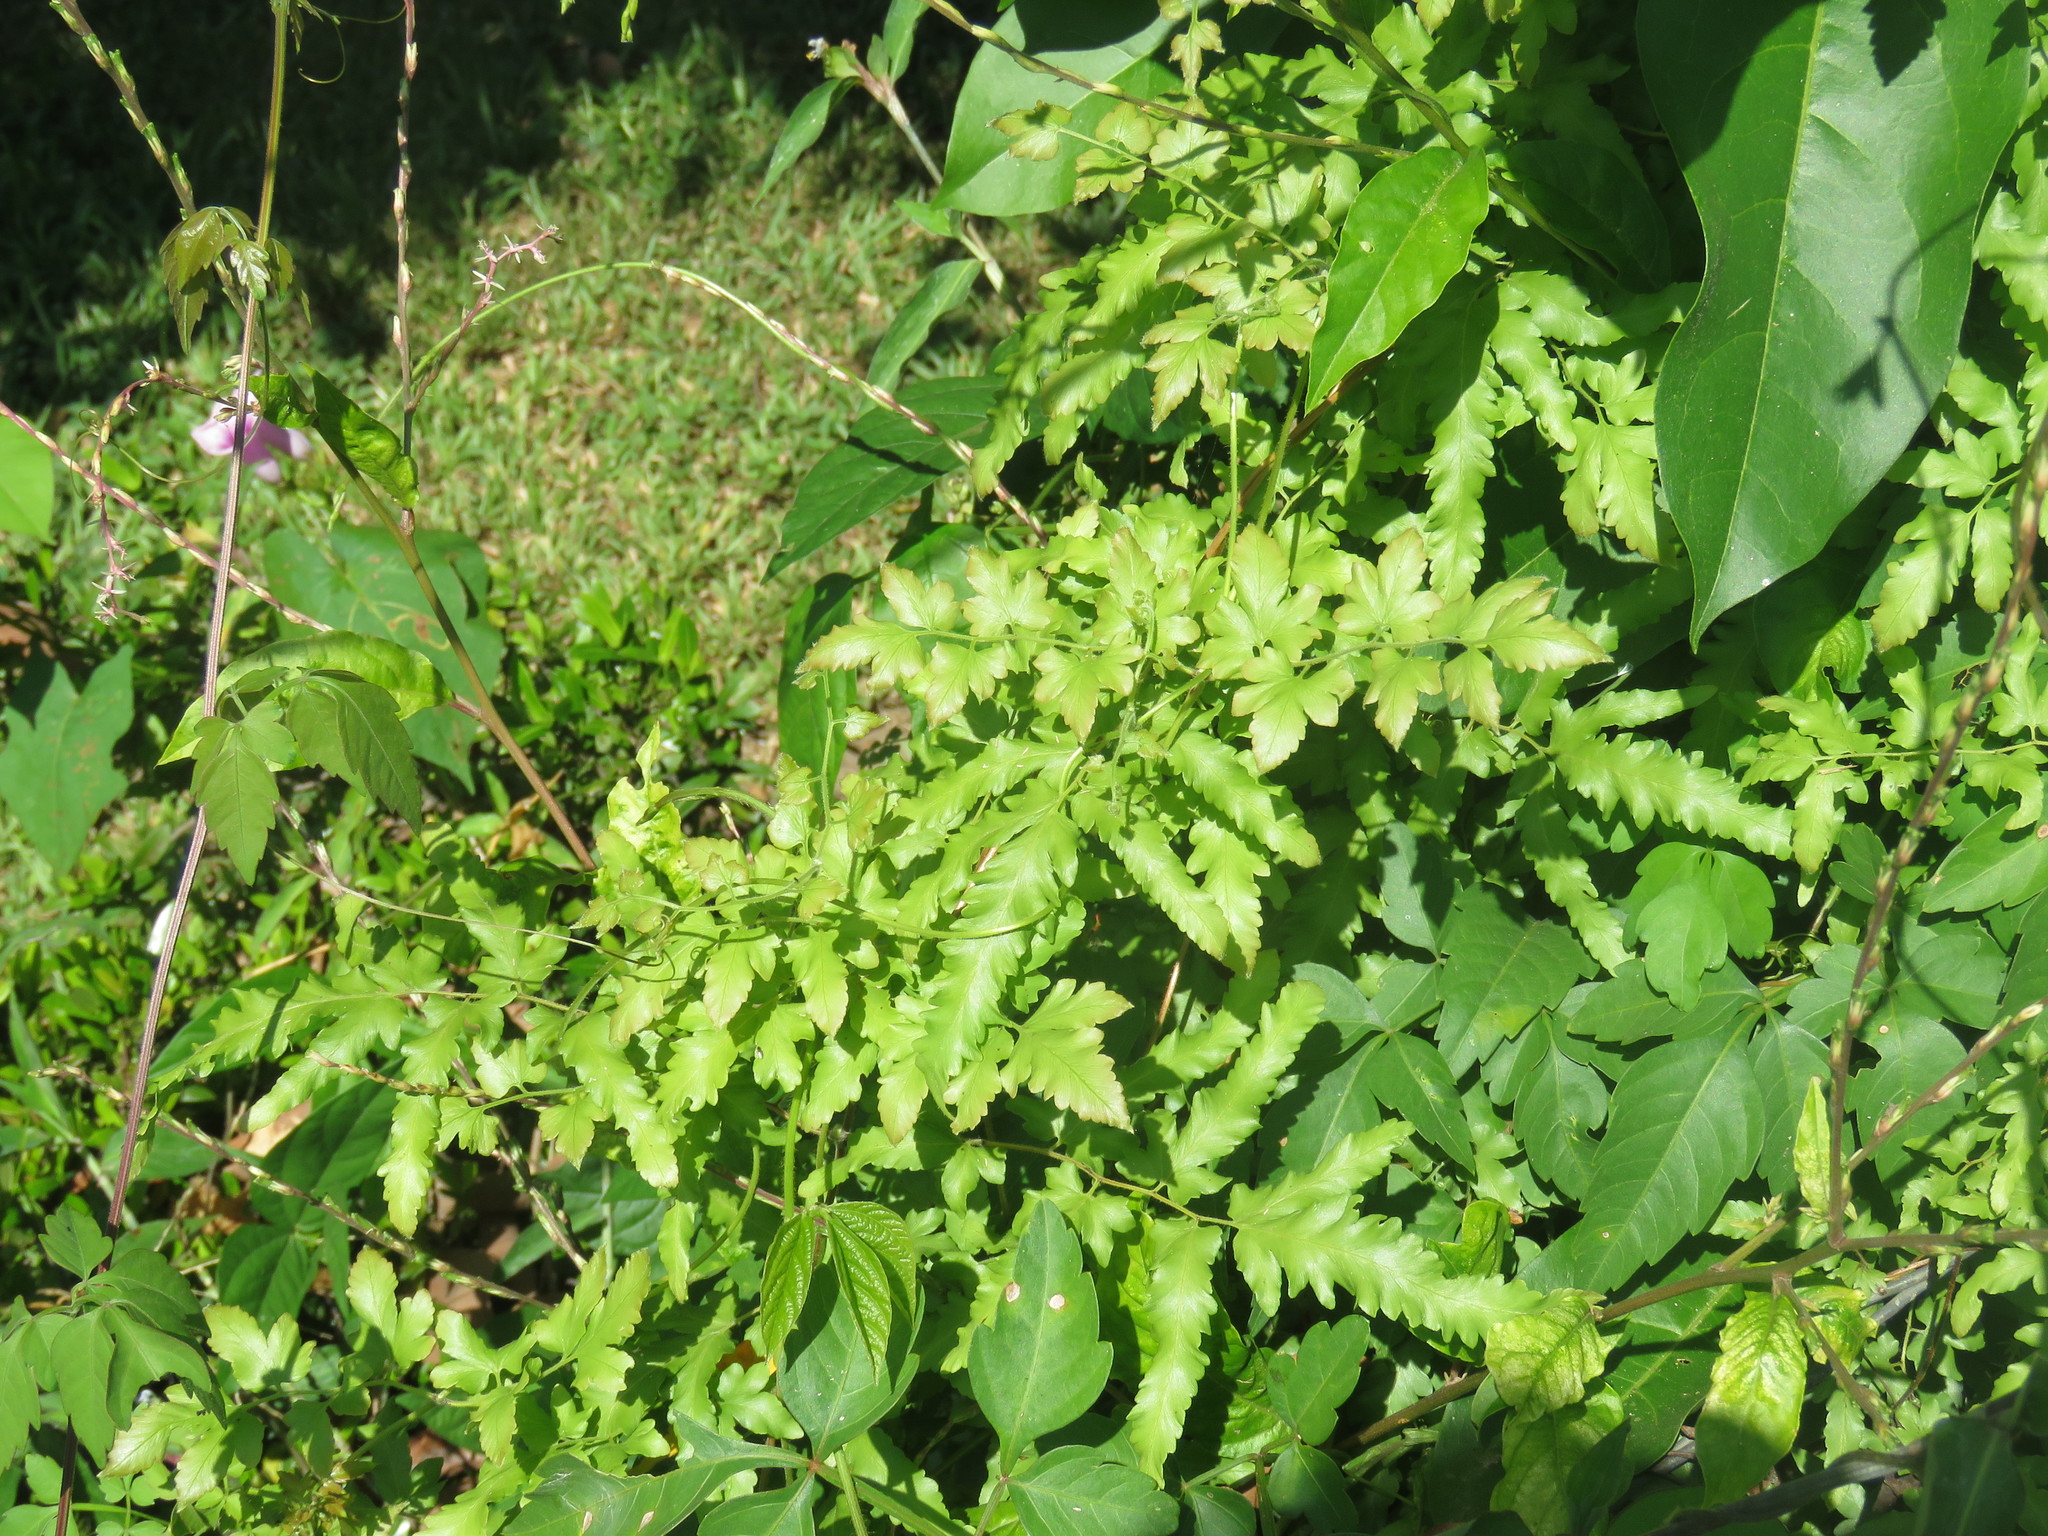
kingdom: Plantae
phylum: Tracheophyta
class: Polypodiopsida
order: Schizaeales
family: Lygodiaceae
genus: Lygodium
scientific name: Lygodium venustum
